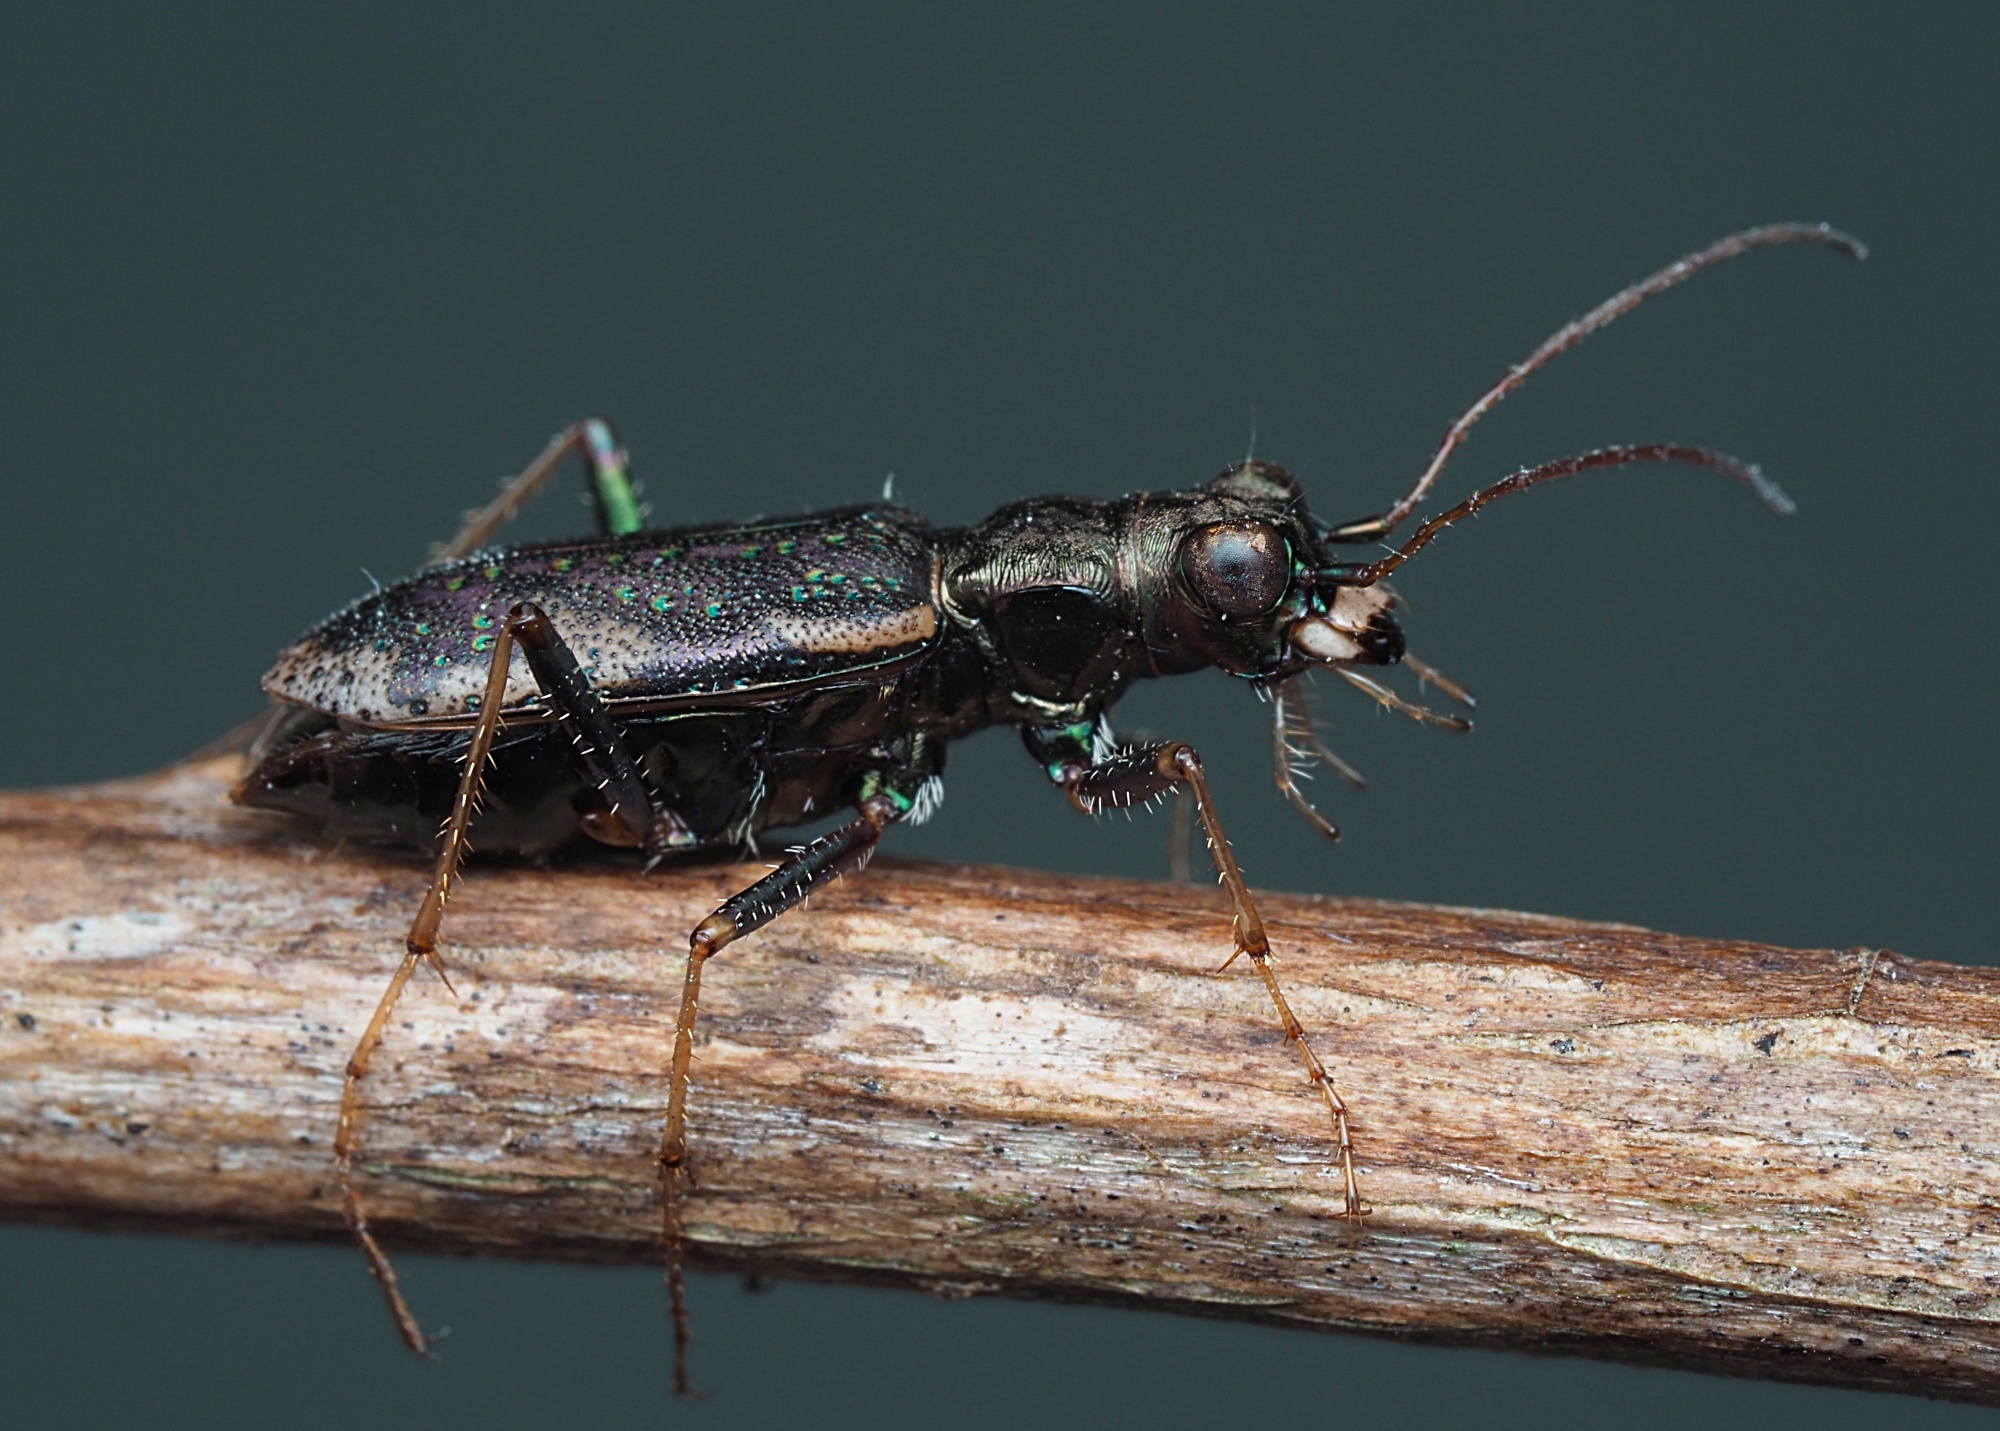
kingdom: Animalia
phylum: Arthropoda
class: Insecta
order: Coleoptera
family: Carabidae
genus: Neocicindela
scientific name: Neocicindela spilleri
